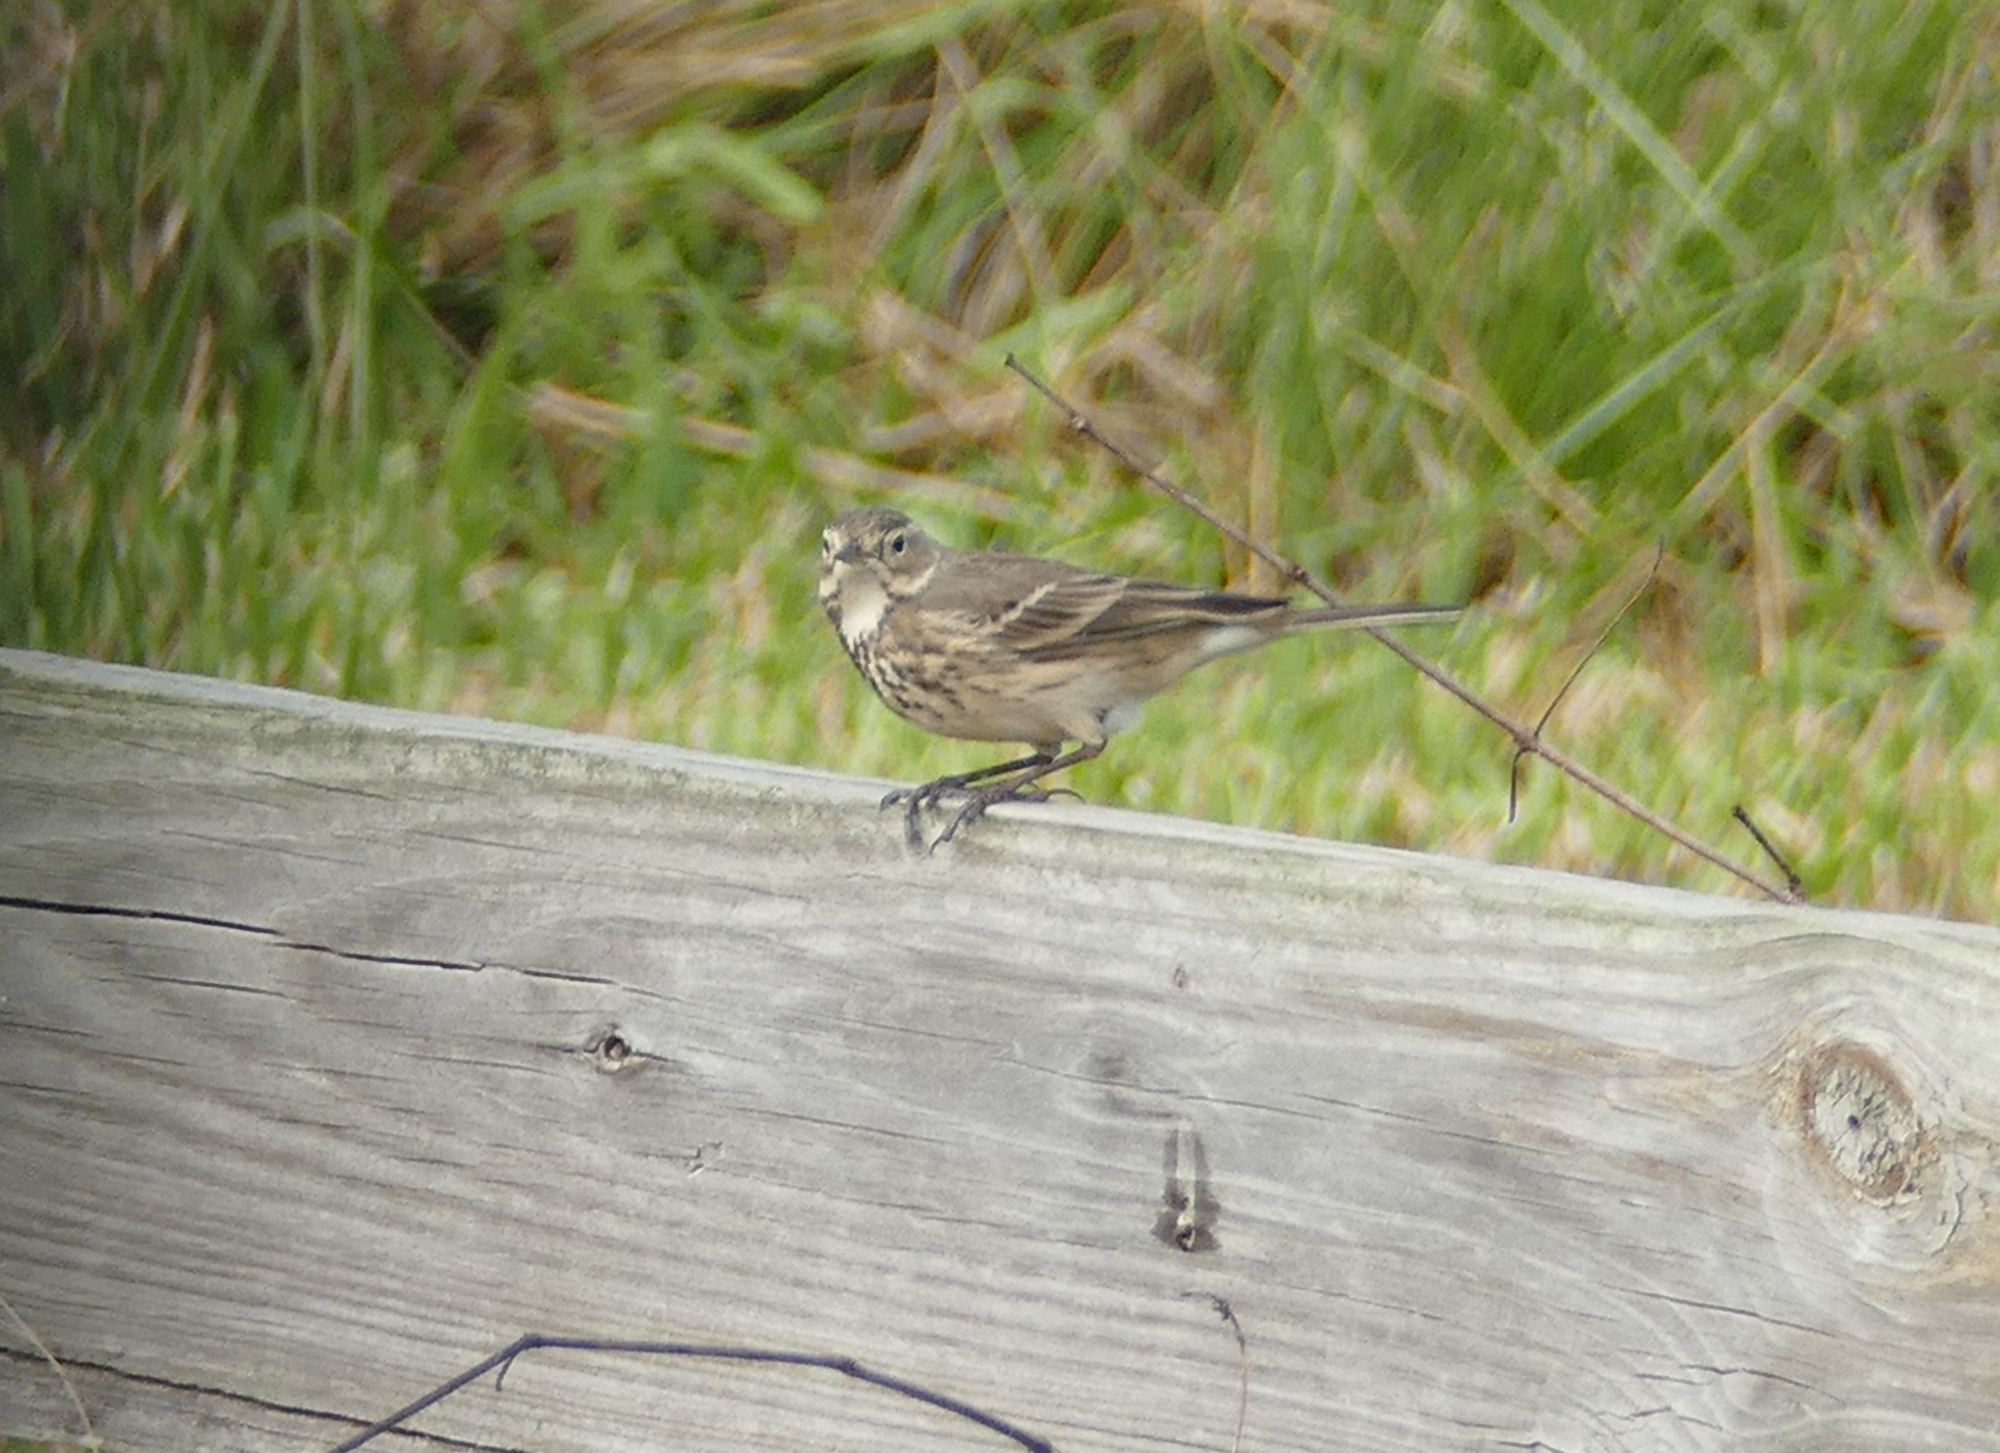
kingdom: Animalia
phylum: Chordata
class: Aves
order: Passeriformes
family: Motacillidae
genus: Anthus
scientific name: Anthus rubescens
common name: Buff-bellied pipit
